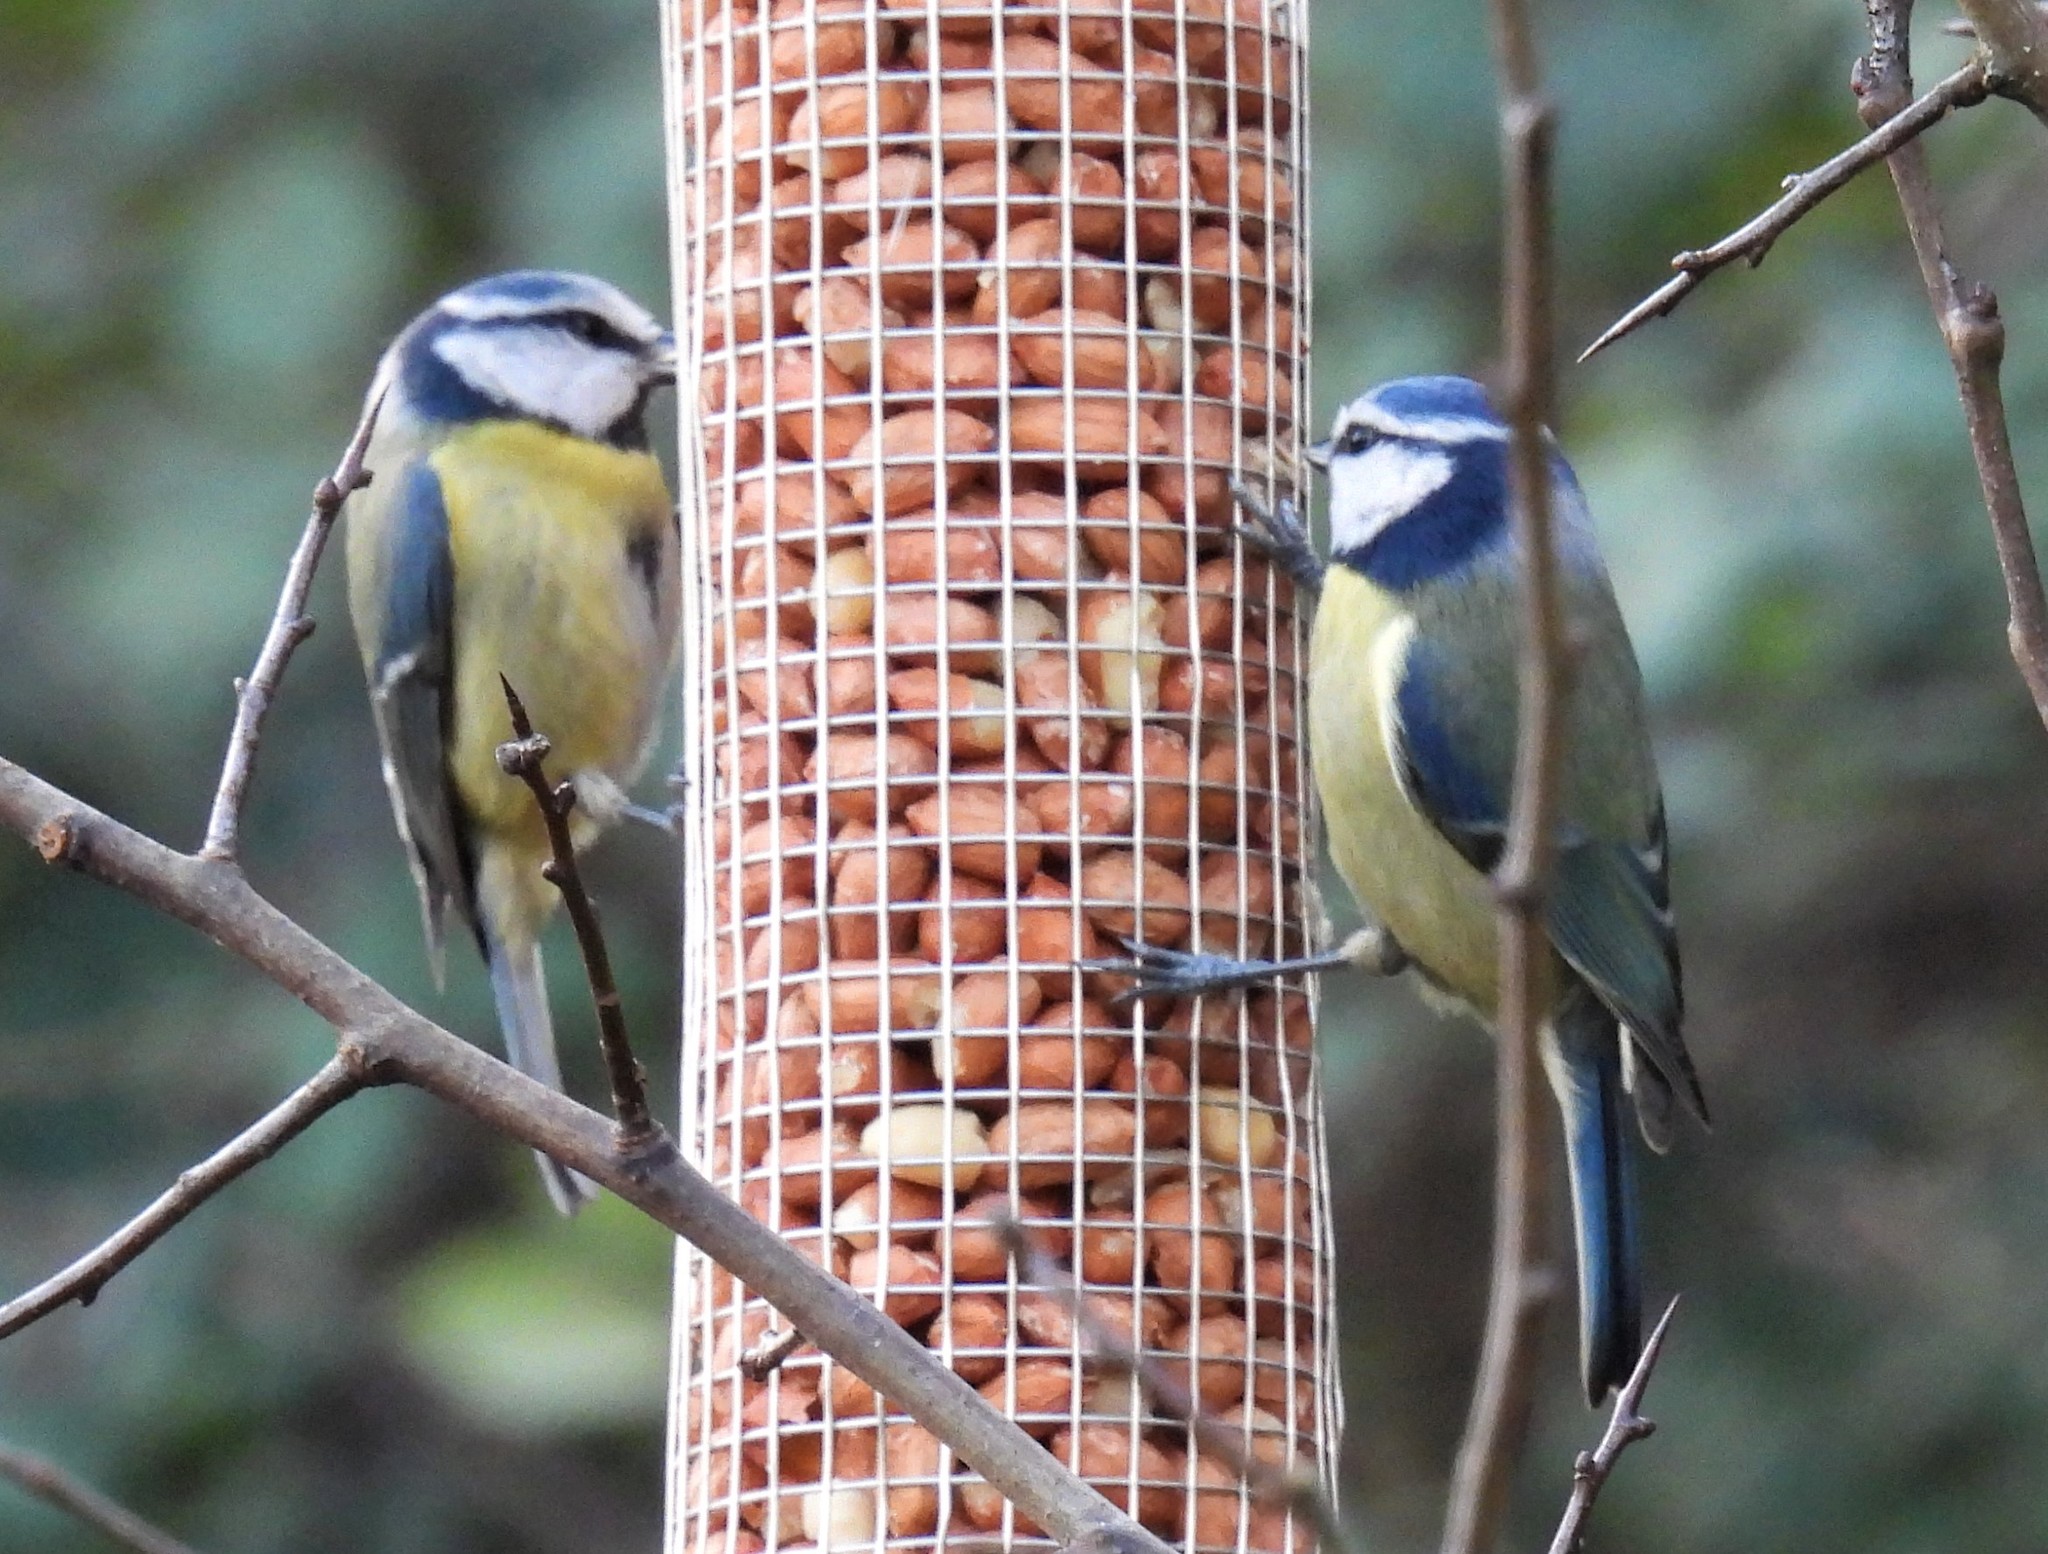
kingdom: Animalia
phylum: Chordata
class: Aves
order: Passeriformes
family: Paridae
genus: Cyanistes
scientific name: Cyanistes caeruleus
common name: Eurasian blue tit
